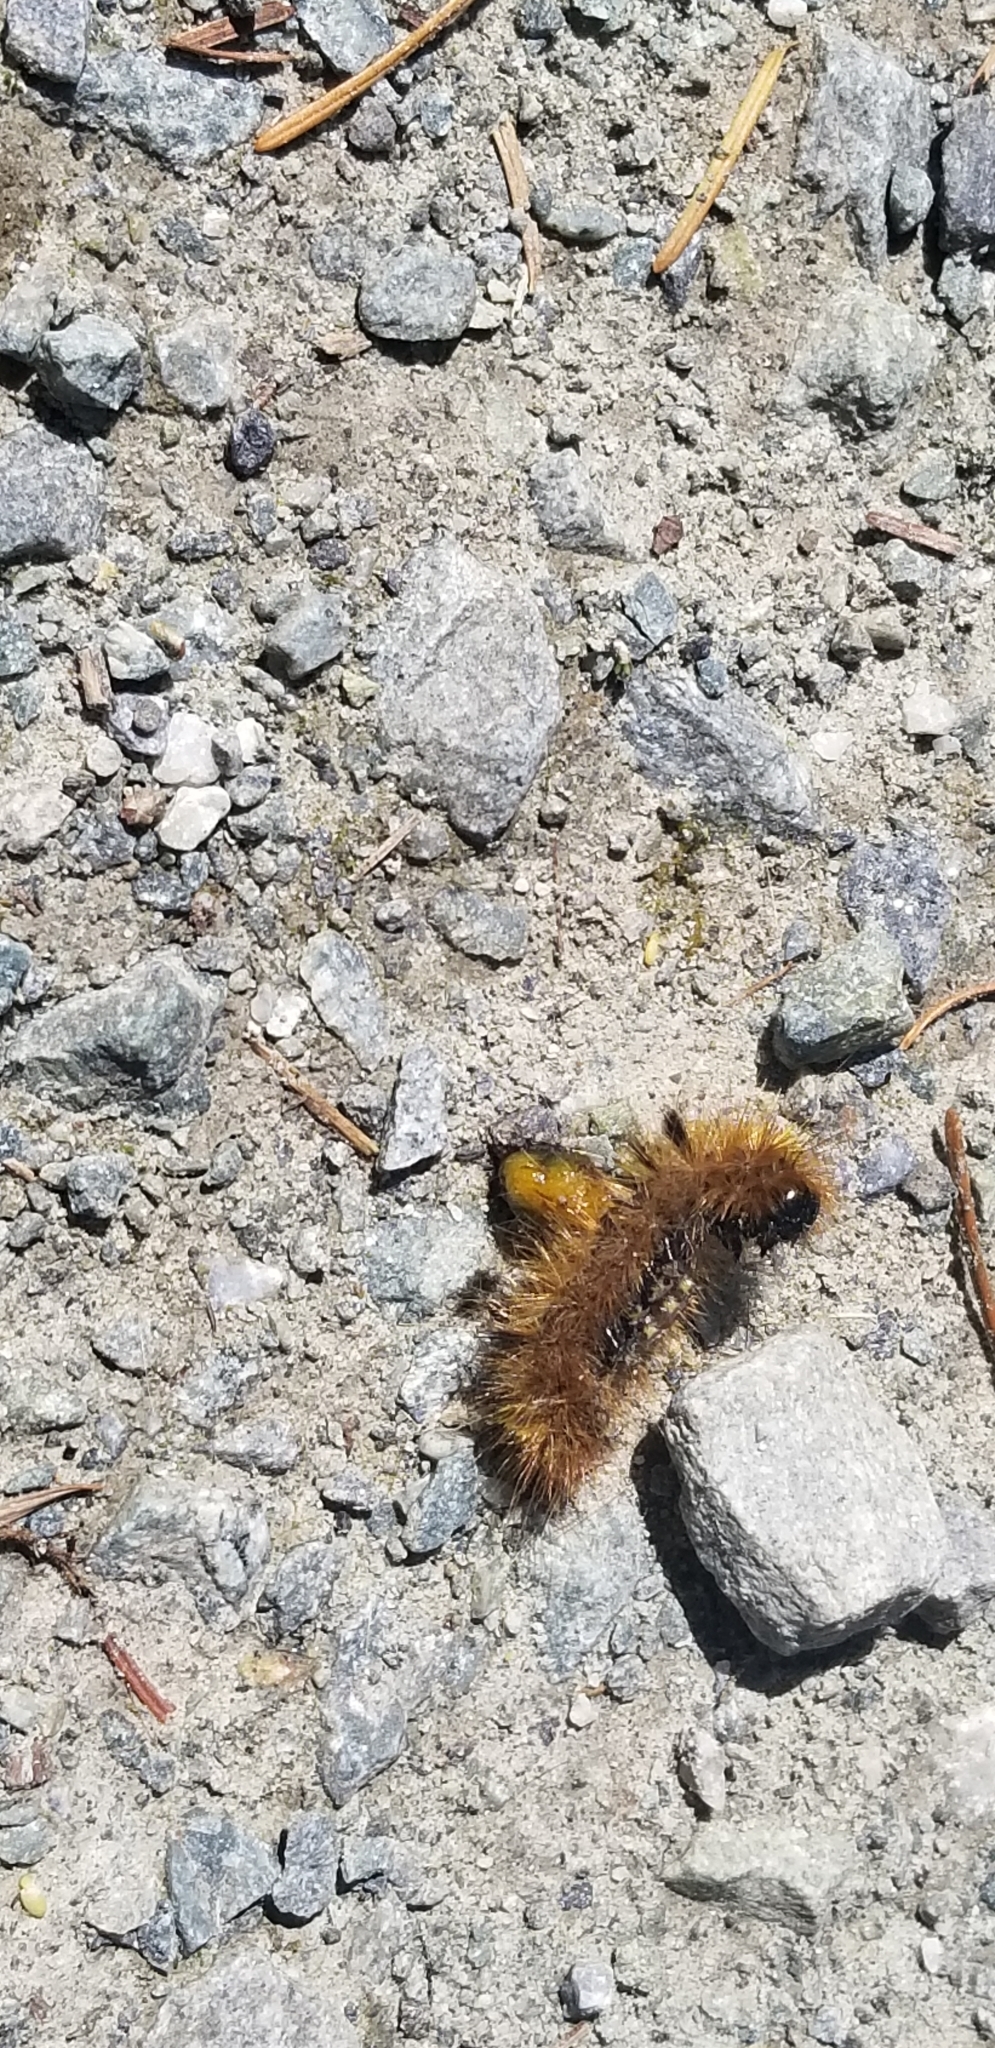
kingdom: Animalia
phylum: Arthropoda
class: Insecta
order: Lepidoptera
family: Erebidae
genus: Lophocampa
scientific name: Lophocampa argentata
